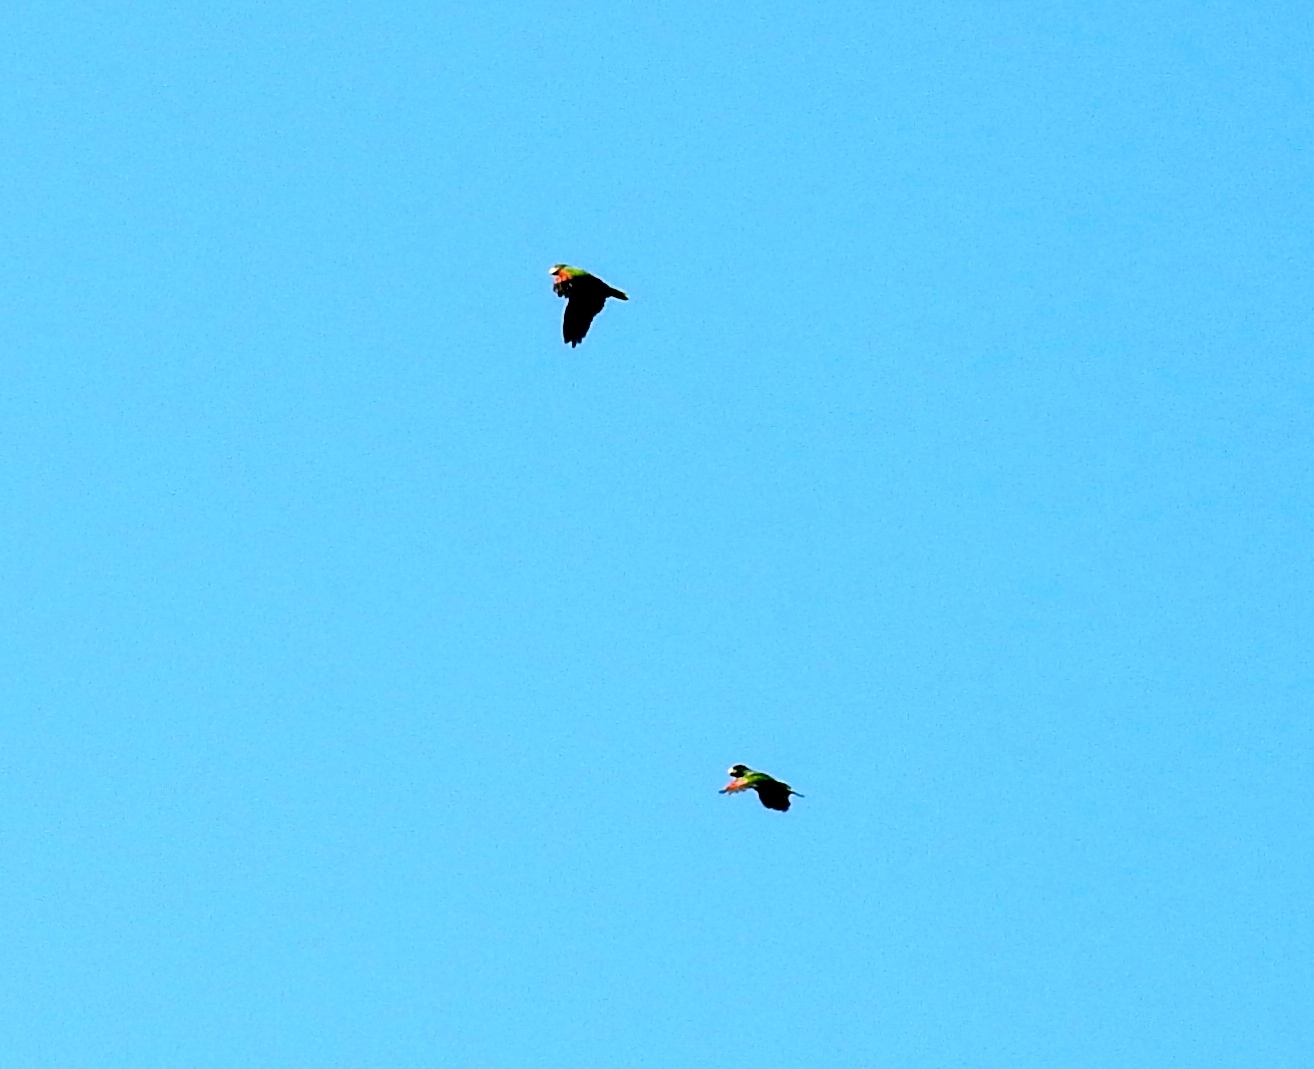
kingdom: Animalia
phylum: Chordata
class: Aves
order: Psittaciformes
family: Psittacidae
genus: Amazona
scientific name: Amazona albifrons
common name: White-fronted amazon
